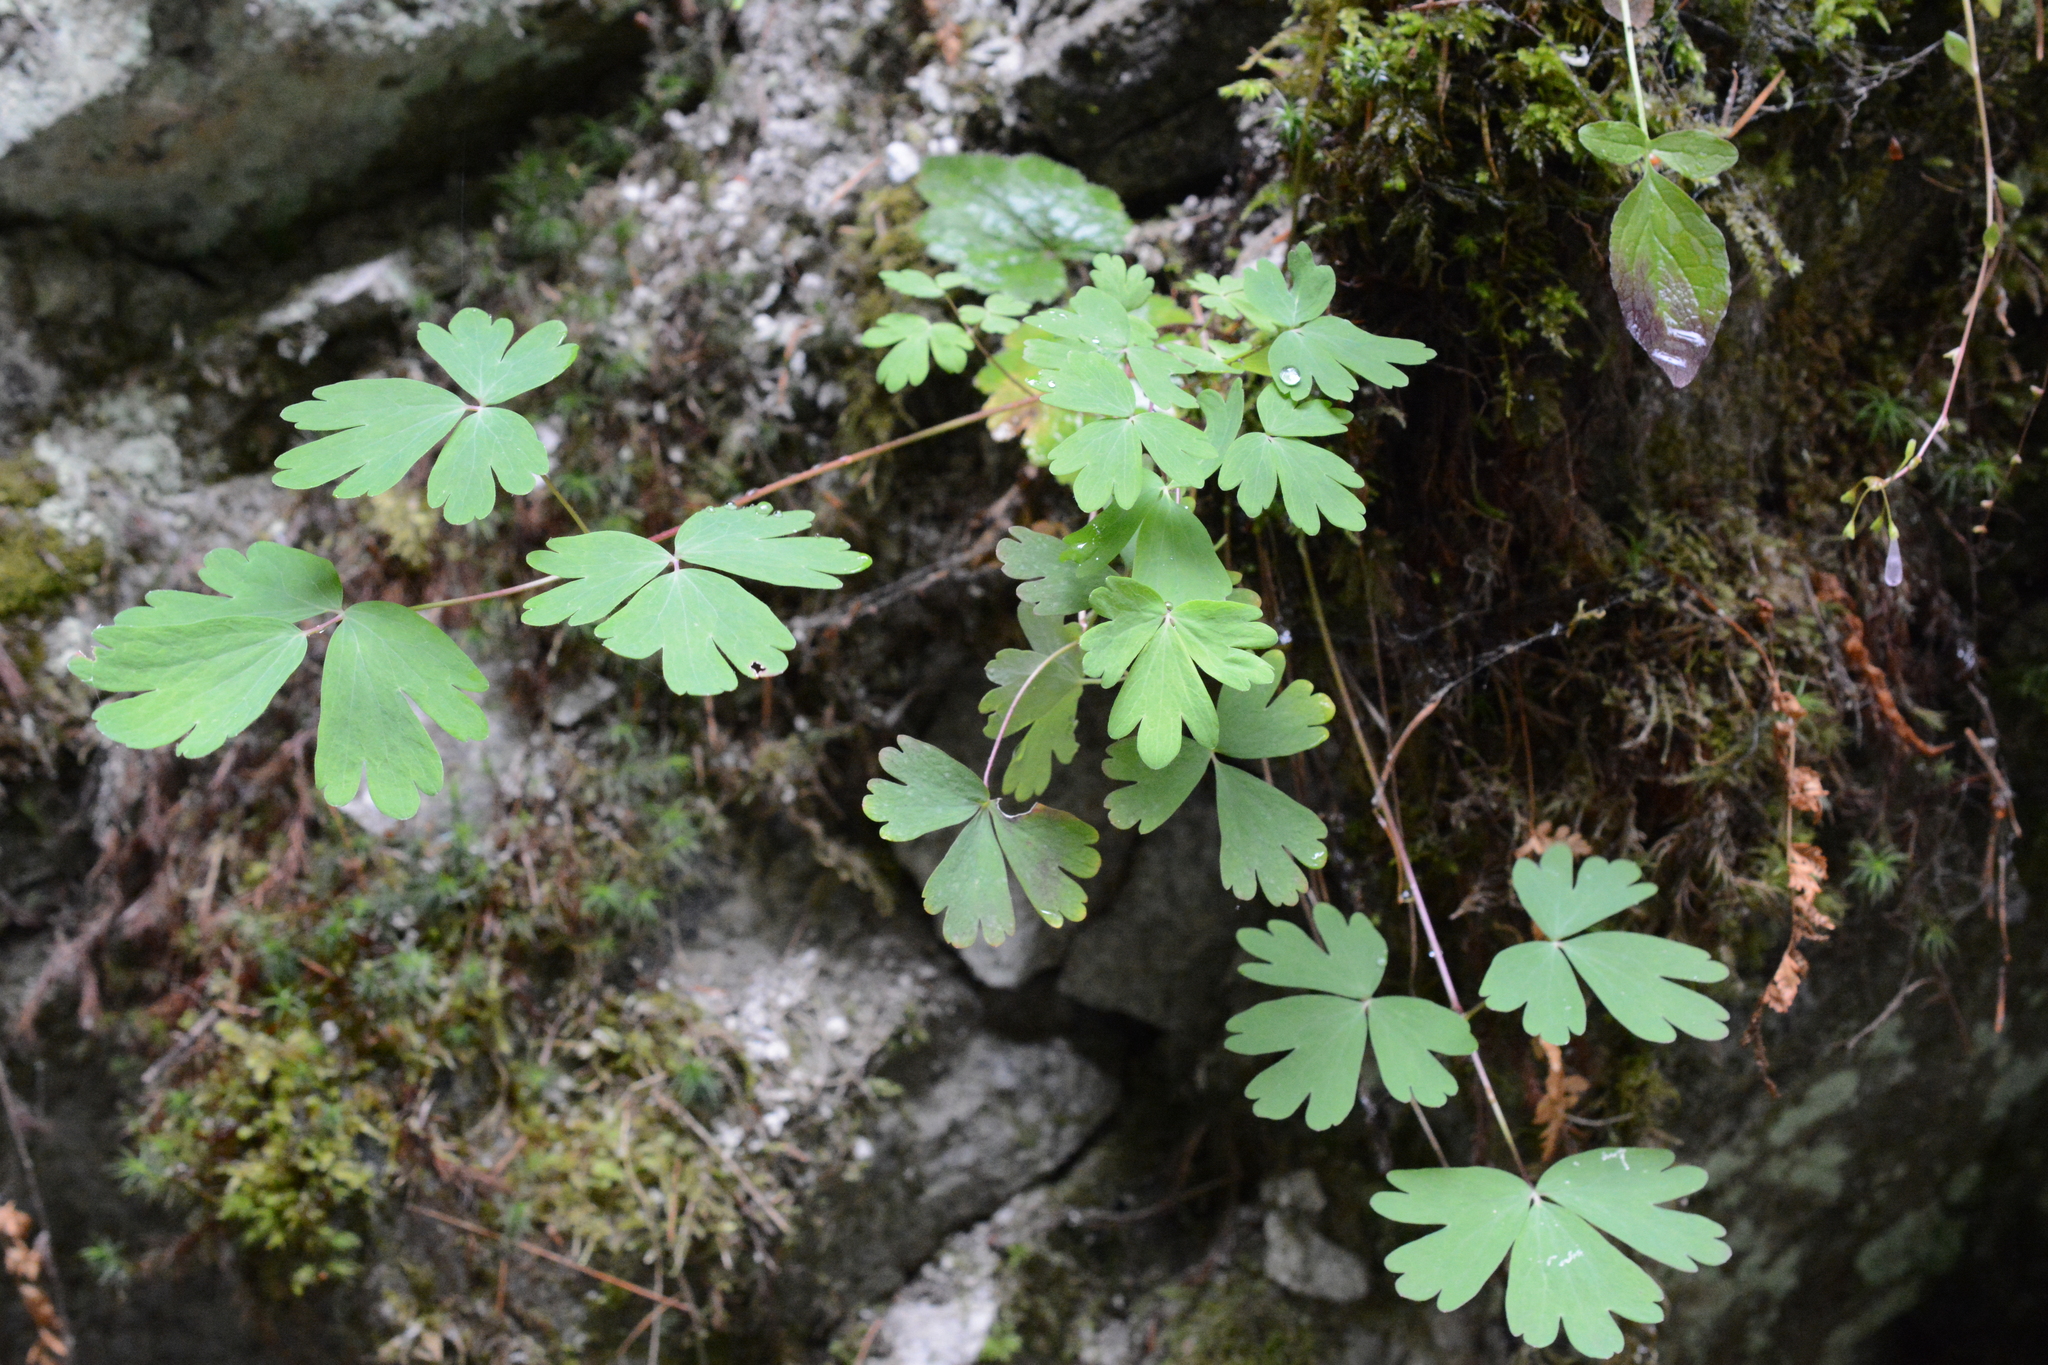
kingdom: Plantae
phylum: Tracheophyta
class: Magnoliopsida
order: Ranunculales
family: Ranunculaceae
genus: Aquilegia
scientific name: Aquilegia formosa
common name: Sitka columbine
